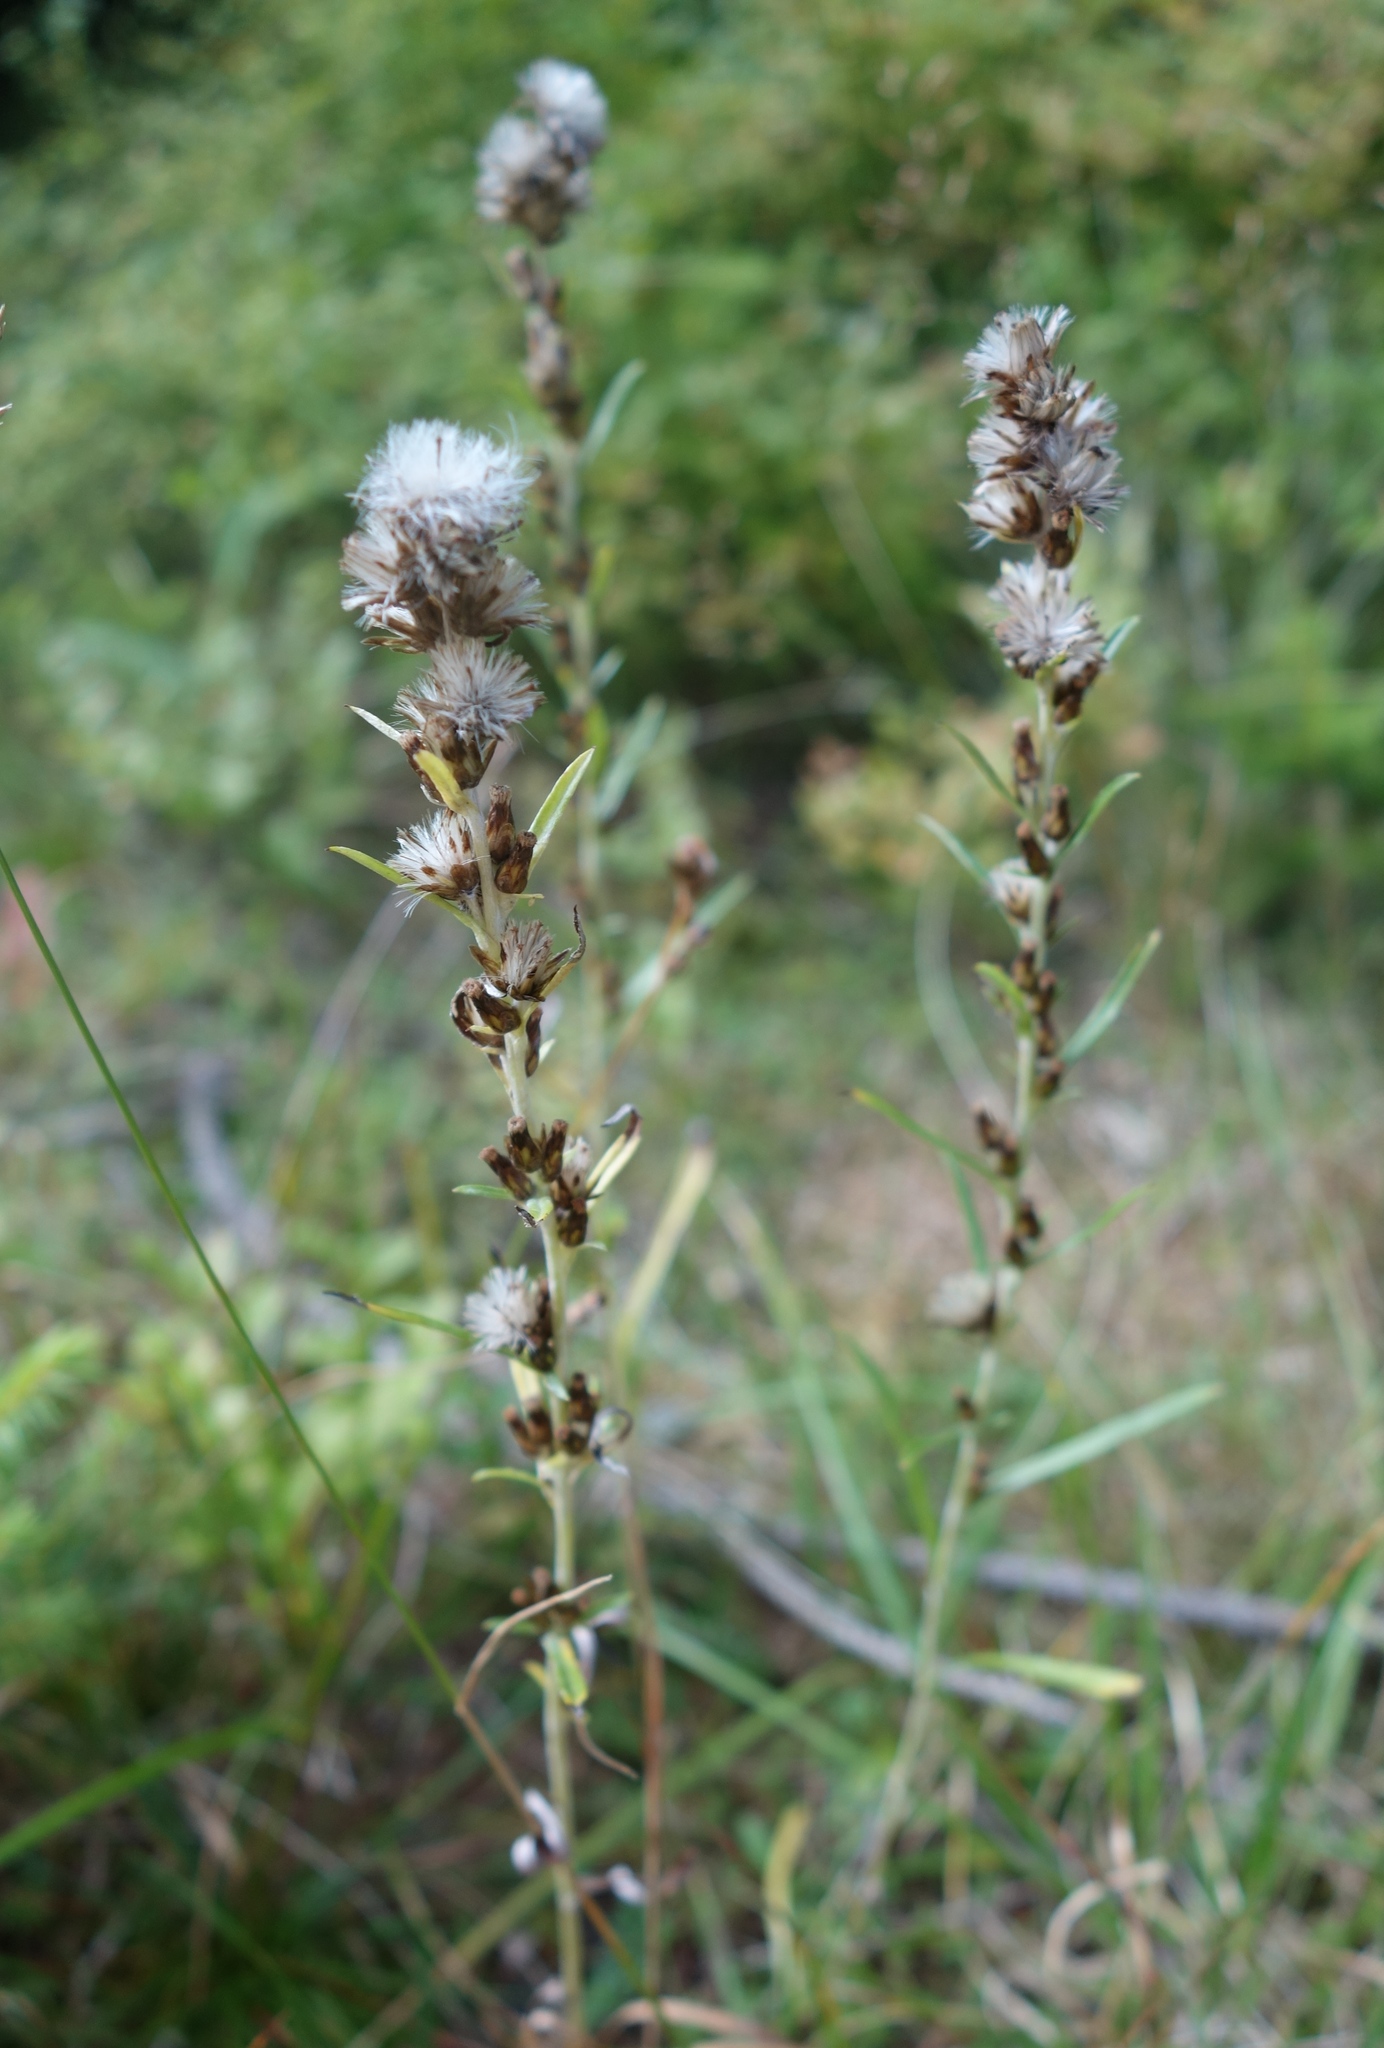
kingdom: Plantae
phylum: Tracheophyta
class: Magnoliopsida
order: Asterales
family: Asteraceae
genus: Omalotheca
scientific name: Omalotheca sylvatica
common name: Heath cudweed
